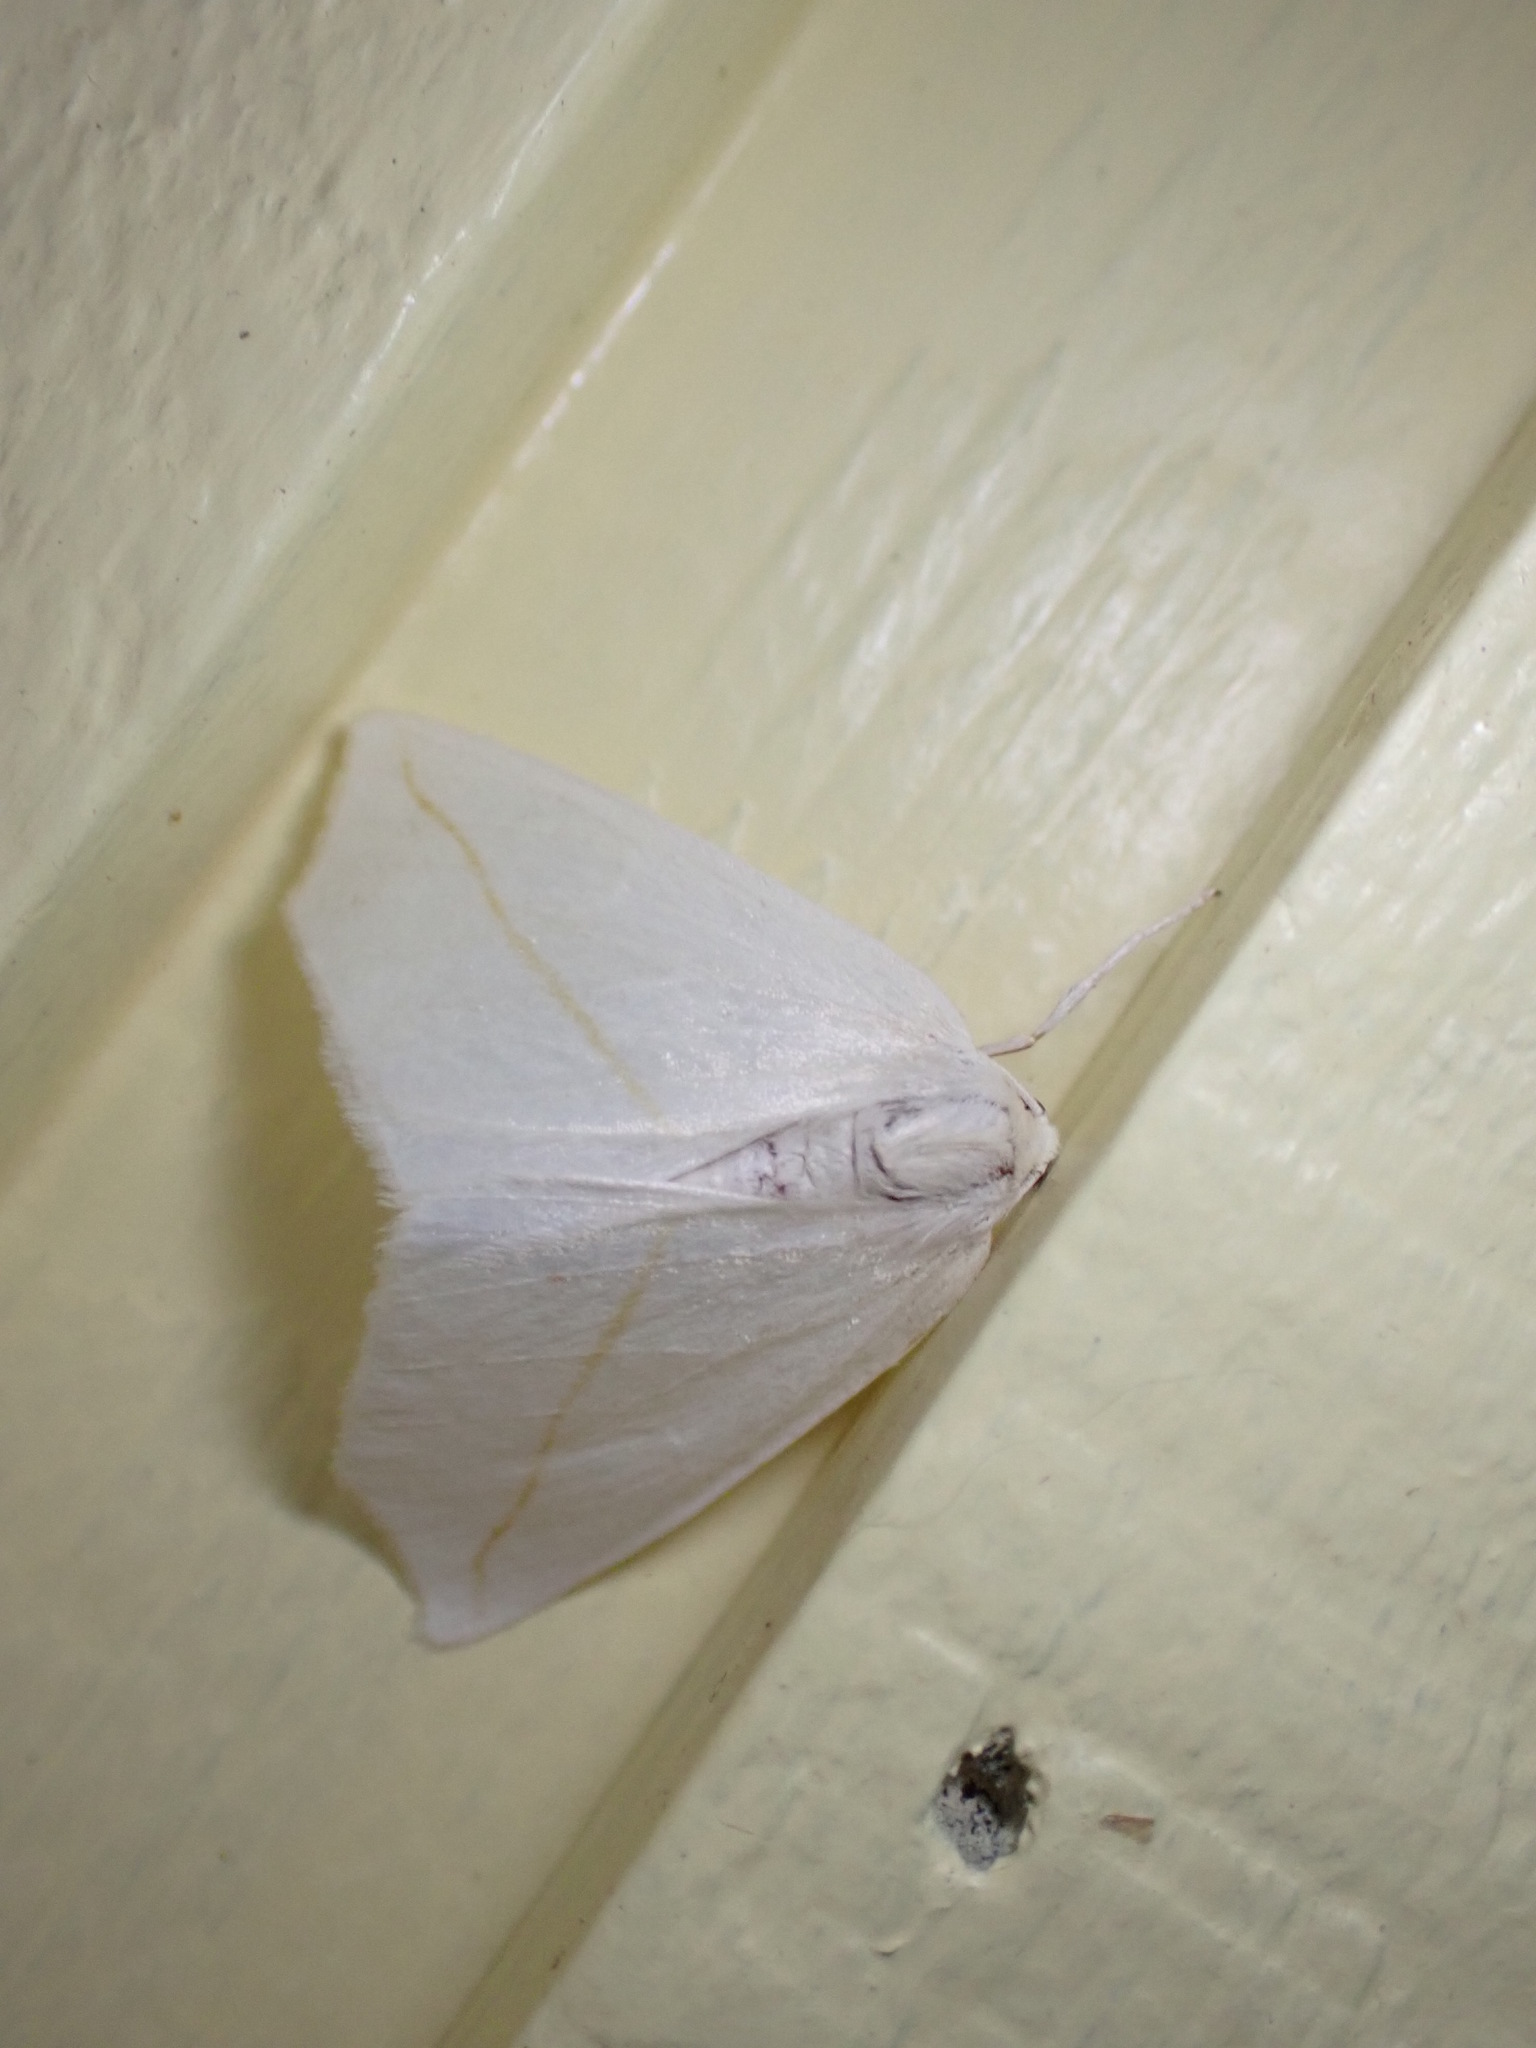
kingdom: Animalia
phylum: Arthropoda
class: Insecta
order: Lepidoptera
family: Geometridae
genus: Tetracis
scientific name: Tetracis cachexiata
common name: White slant-line
